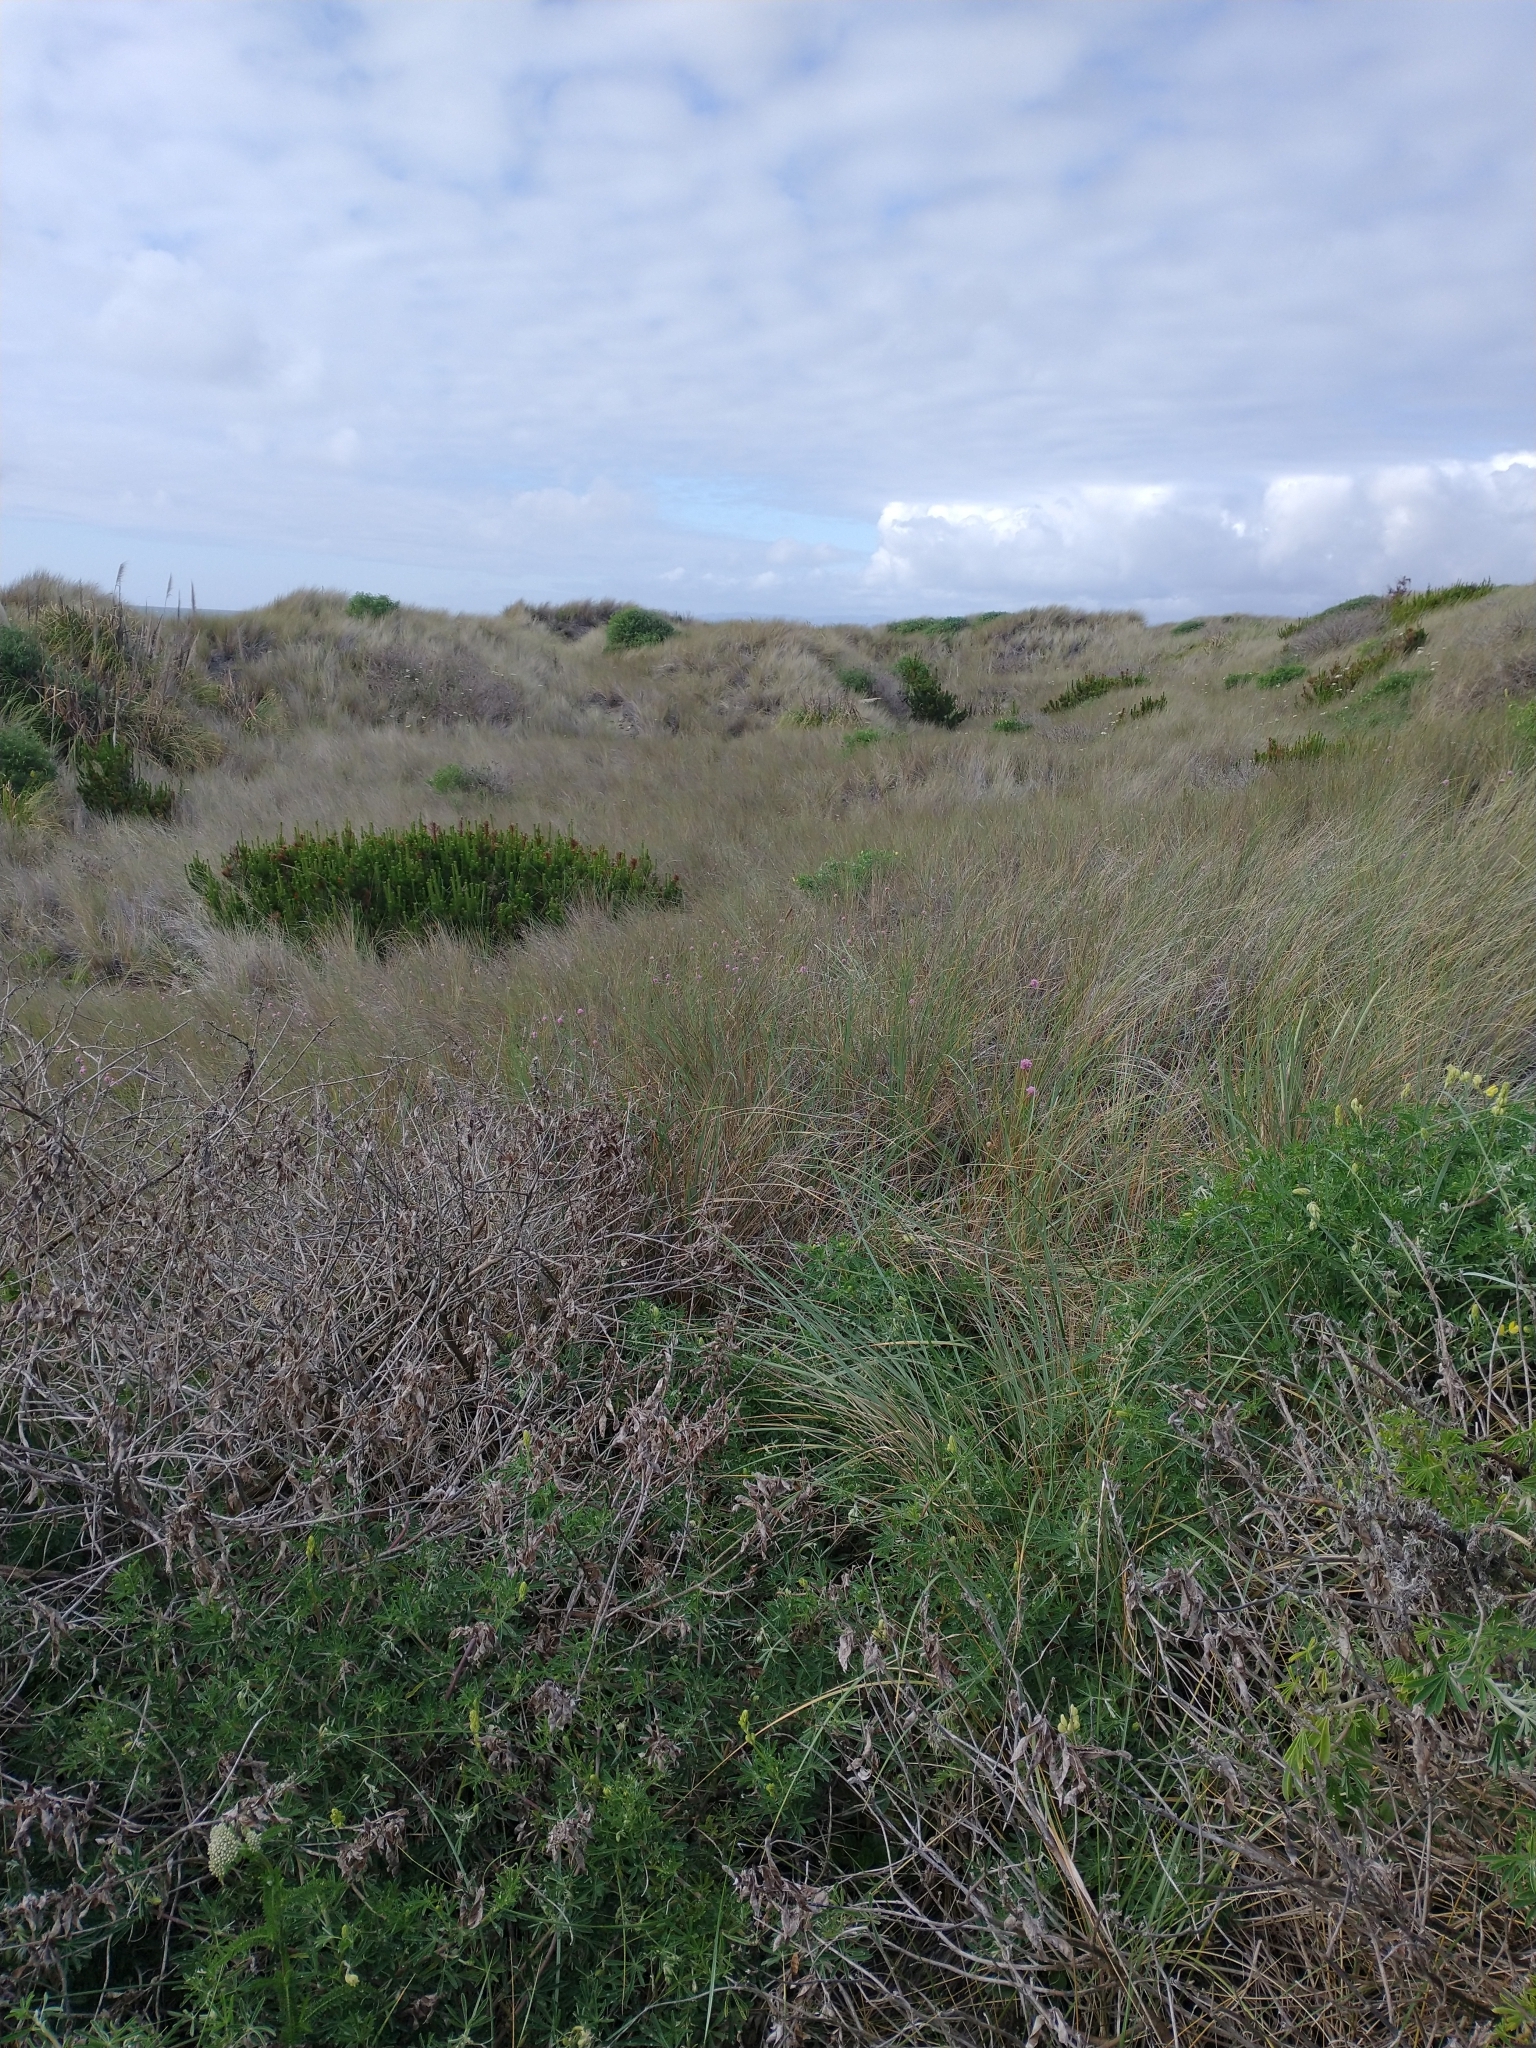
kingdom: Plantae
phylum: Tracheophyta
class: Pinopsida
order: Pinales
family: Pinaceae
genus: Pinus
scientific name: Pinus contorta
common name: Lodgepole pine
